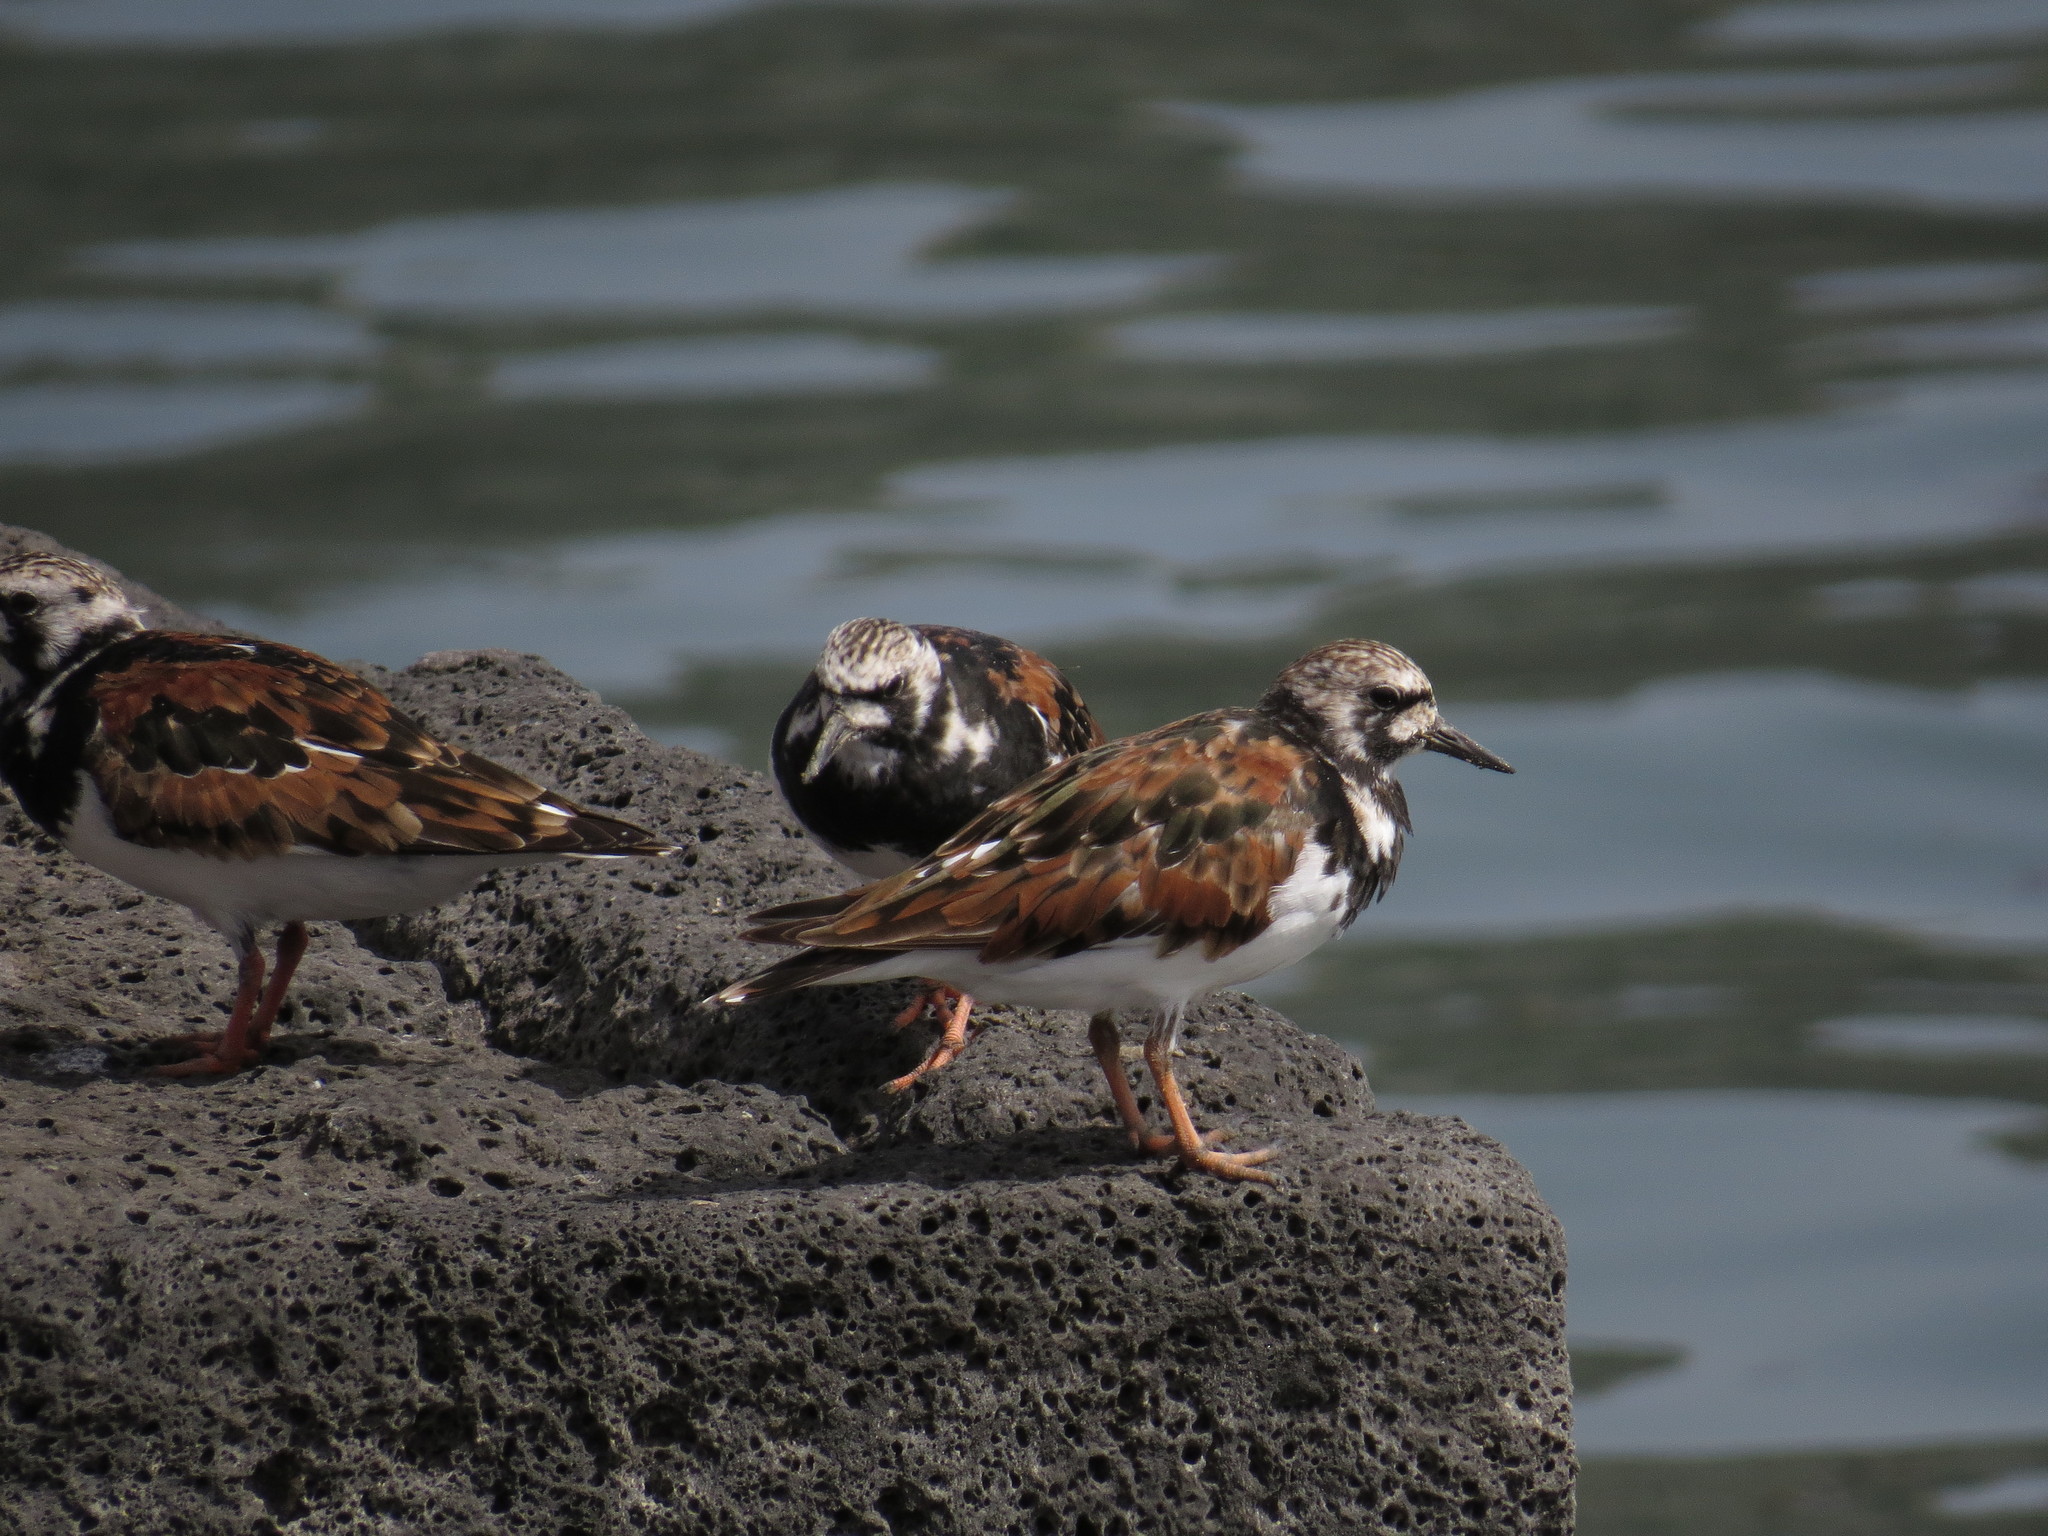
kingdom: Animalia
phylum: Chordata
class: Aves
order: Charadriiformes
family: Scolopacidae
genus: Arenaria
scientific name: Arenaria interpres
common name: Ruddy turnstone
